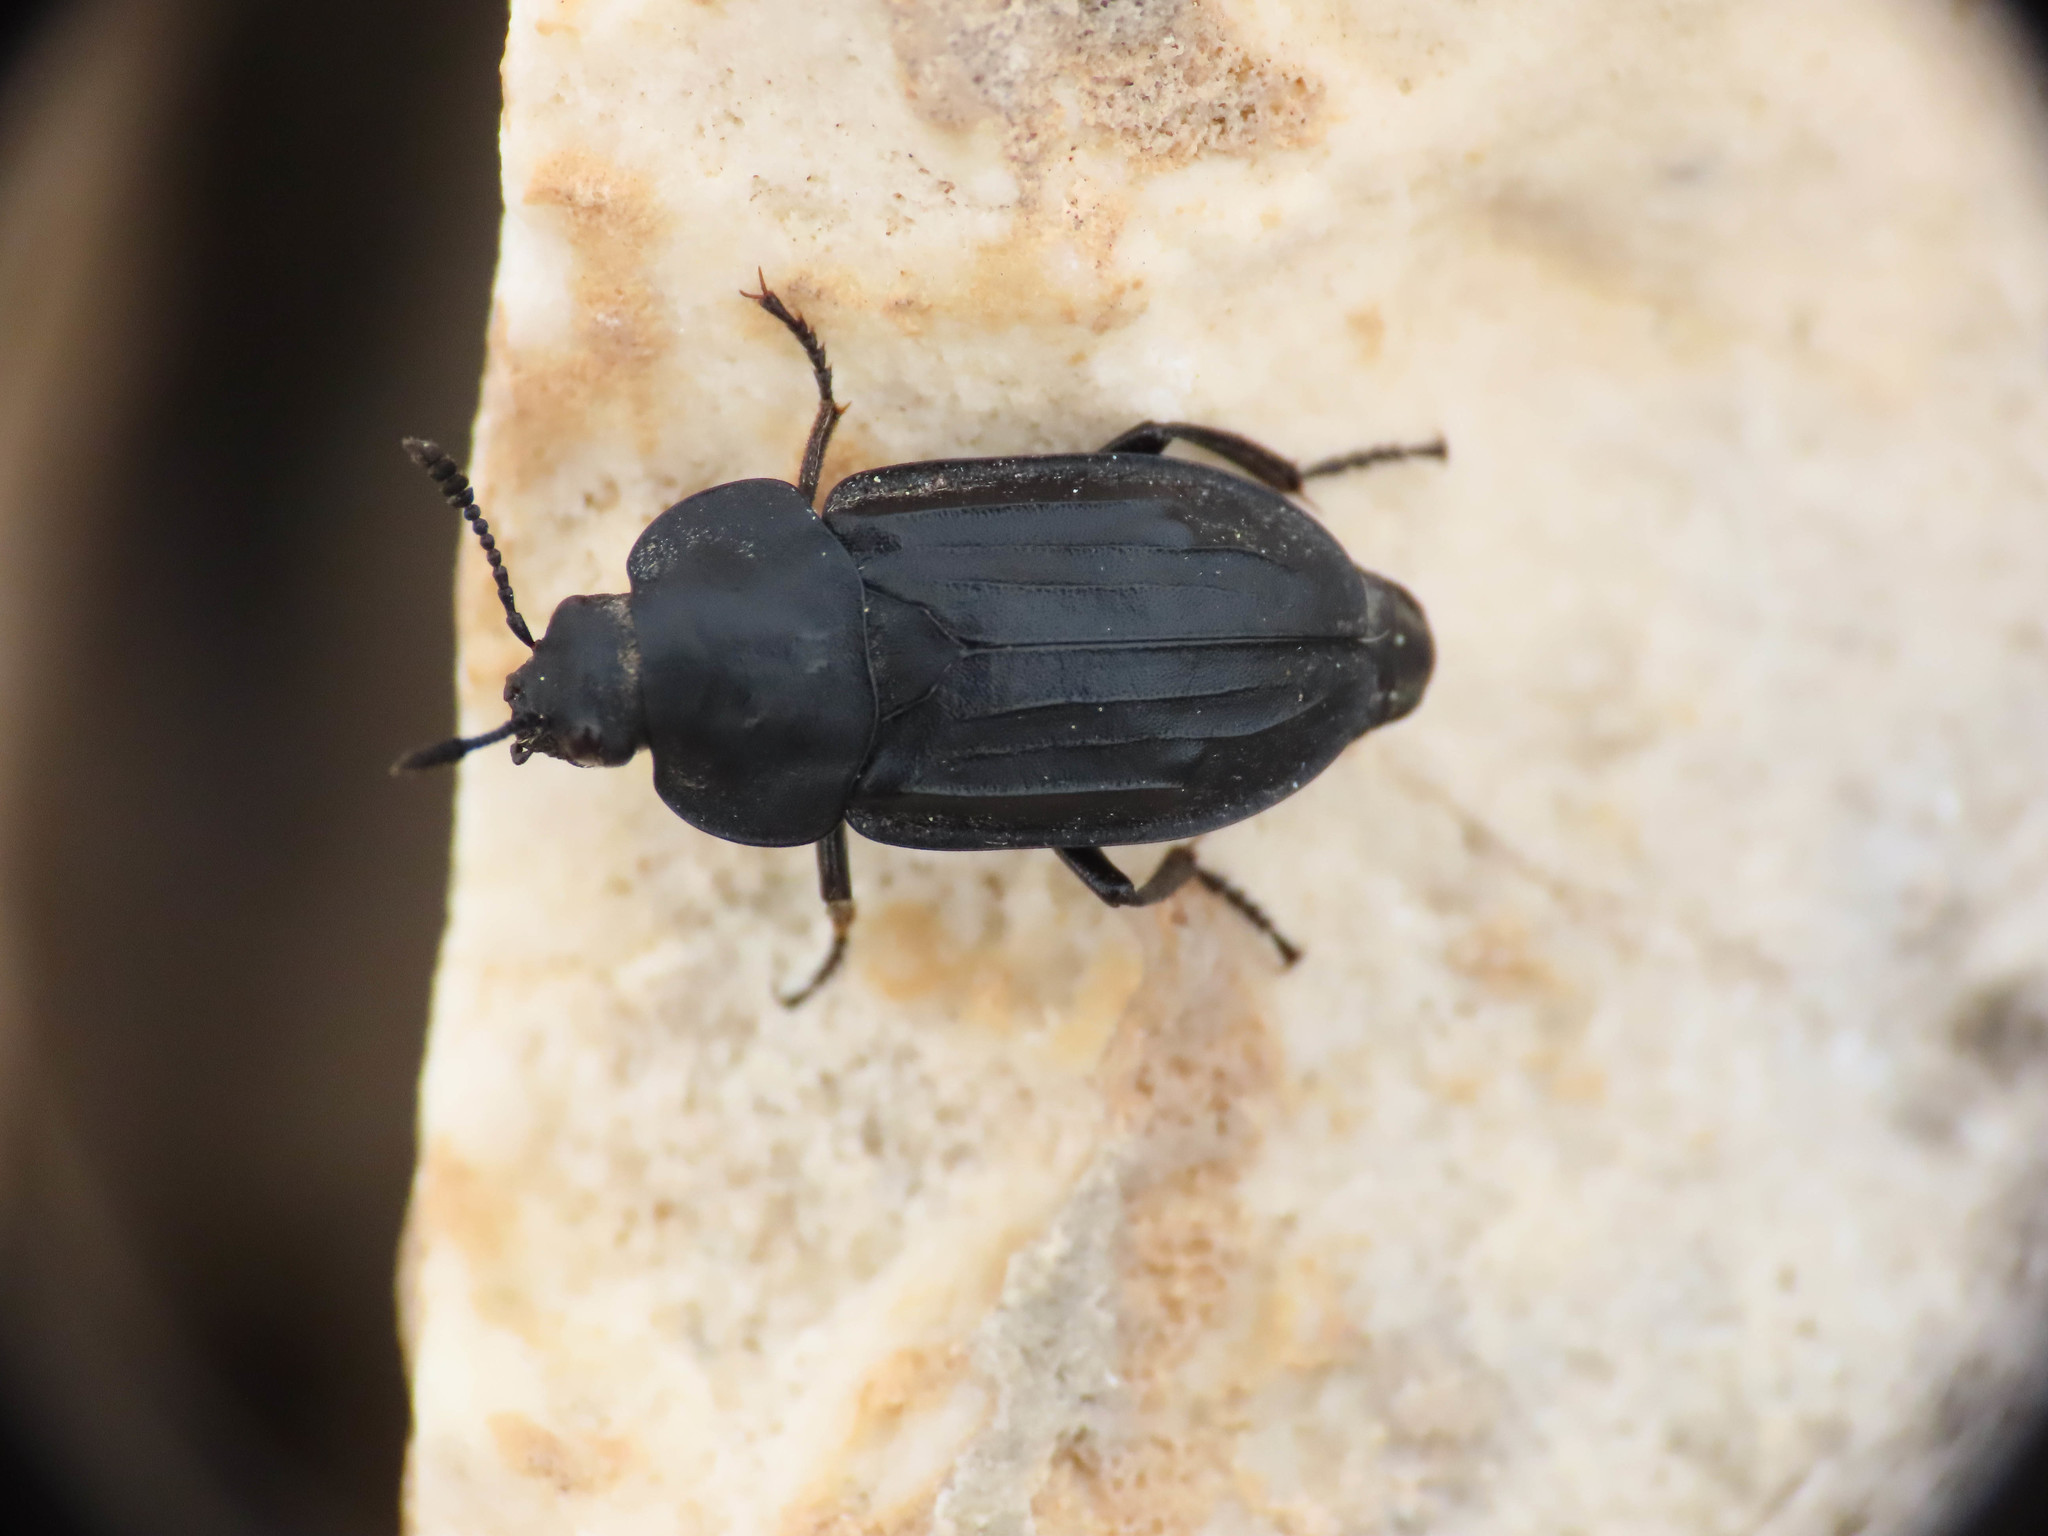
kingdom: Animalia
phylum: Arthropoda
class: Insecta
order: Coleoptera
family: Staphylinidae
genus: Aclypea
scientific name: Aclypea opaca
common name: Silphid beetle
